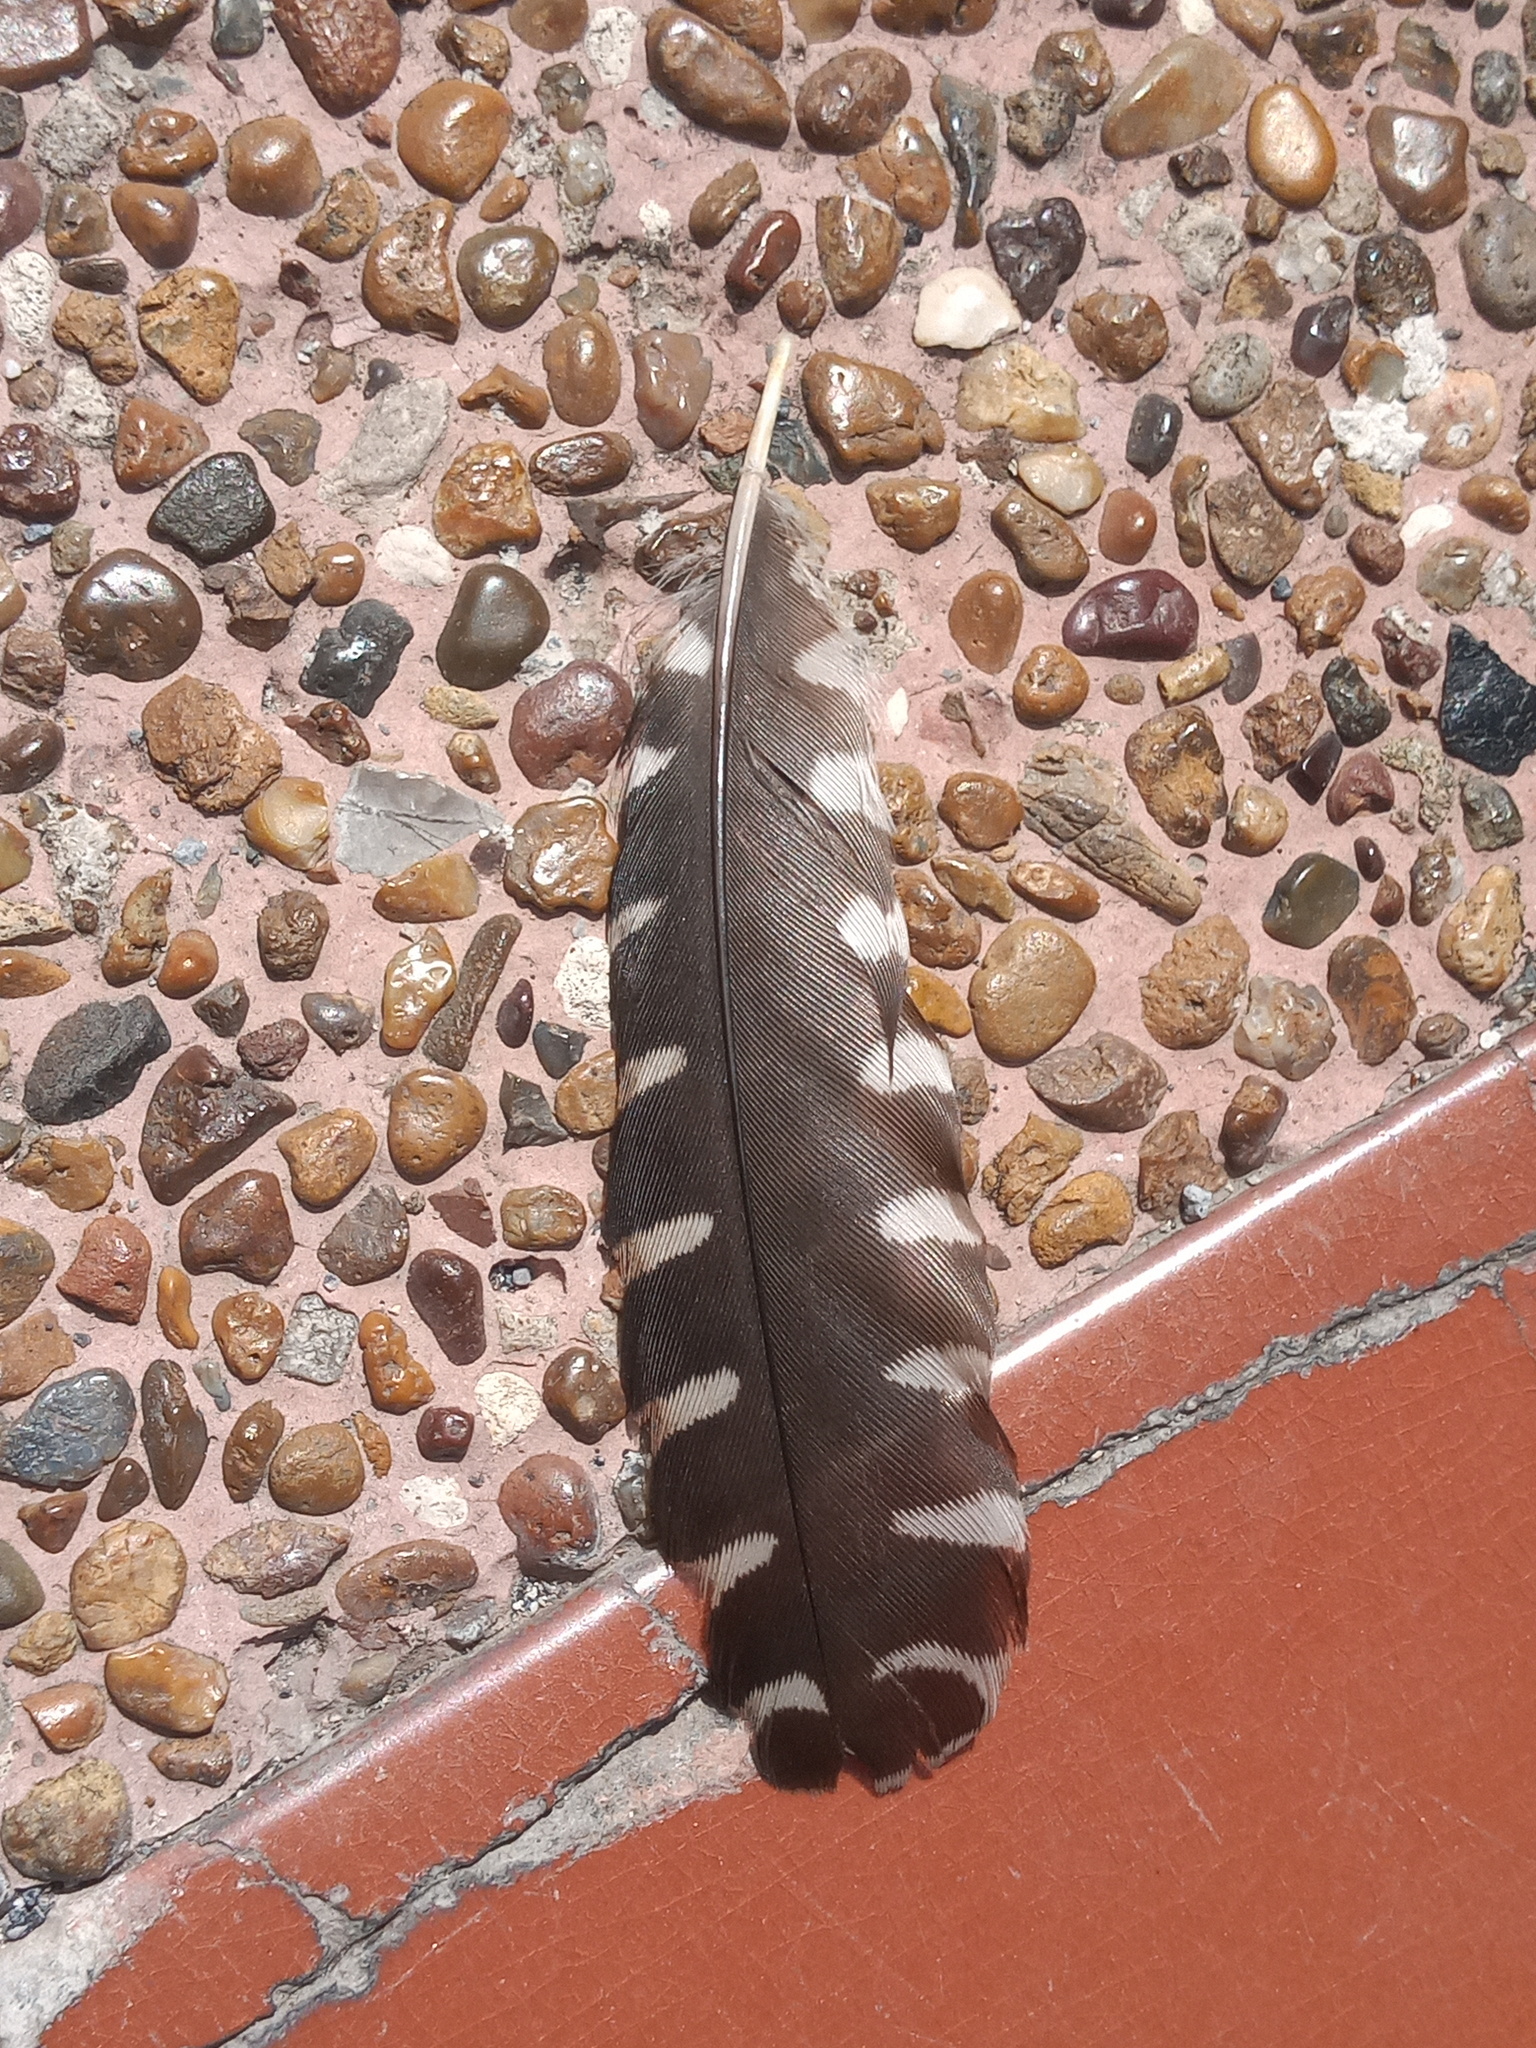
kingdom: Animalia
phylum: Chordata
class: Aves
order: Piciformes
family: Picidae
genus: Melanerpes
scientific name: Melanerpes aurifrons
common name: Golden-fronted woodpecker
